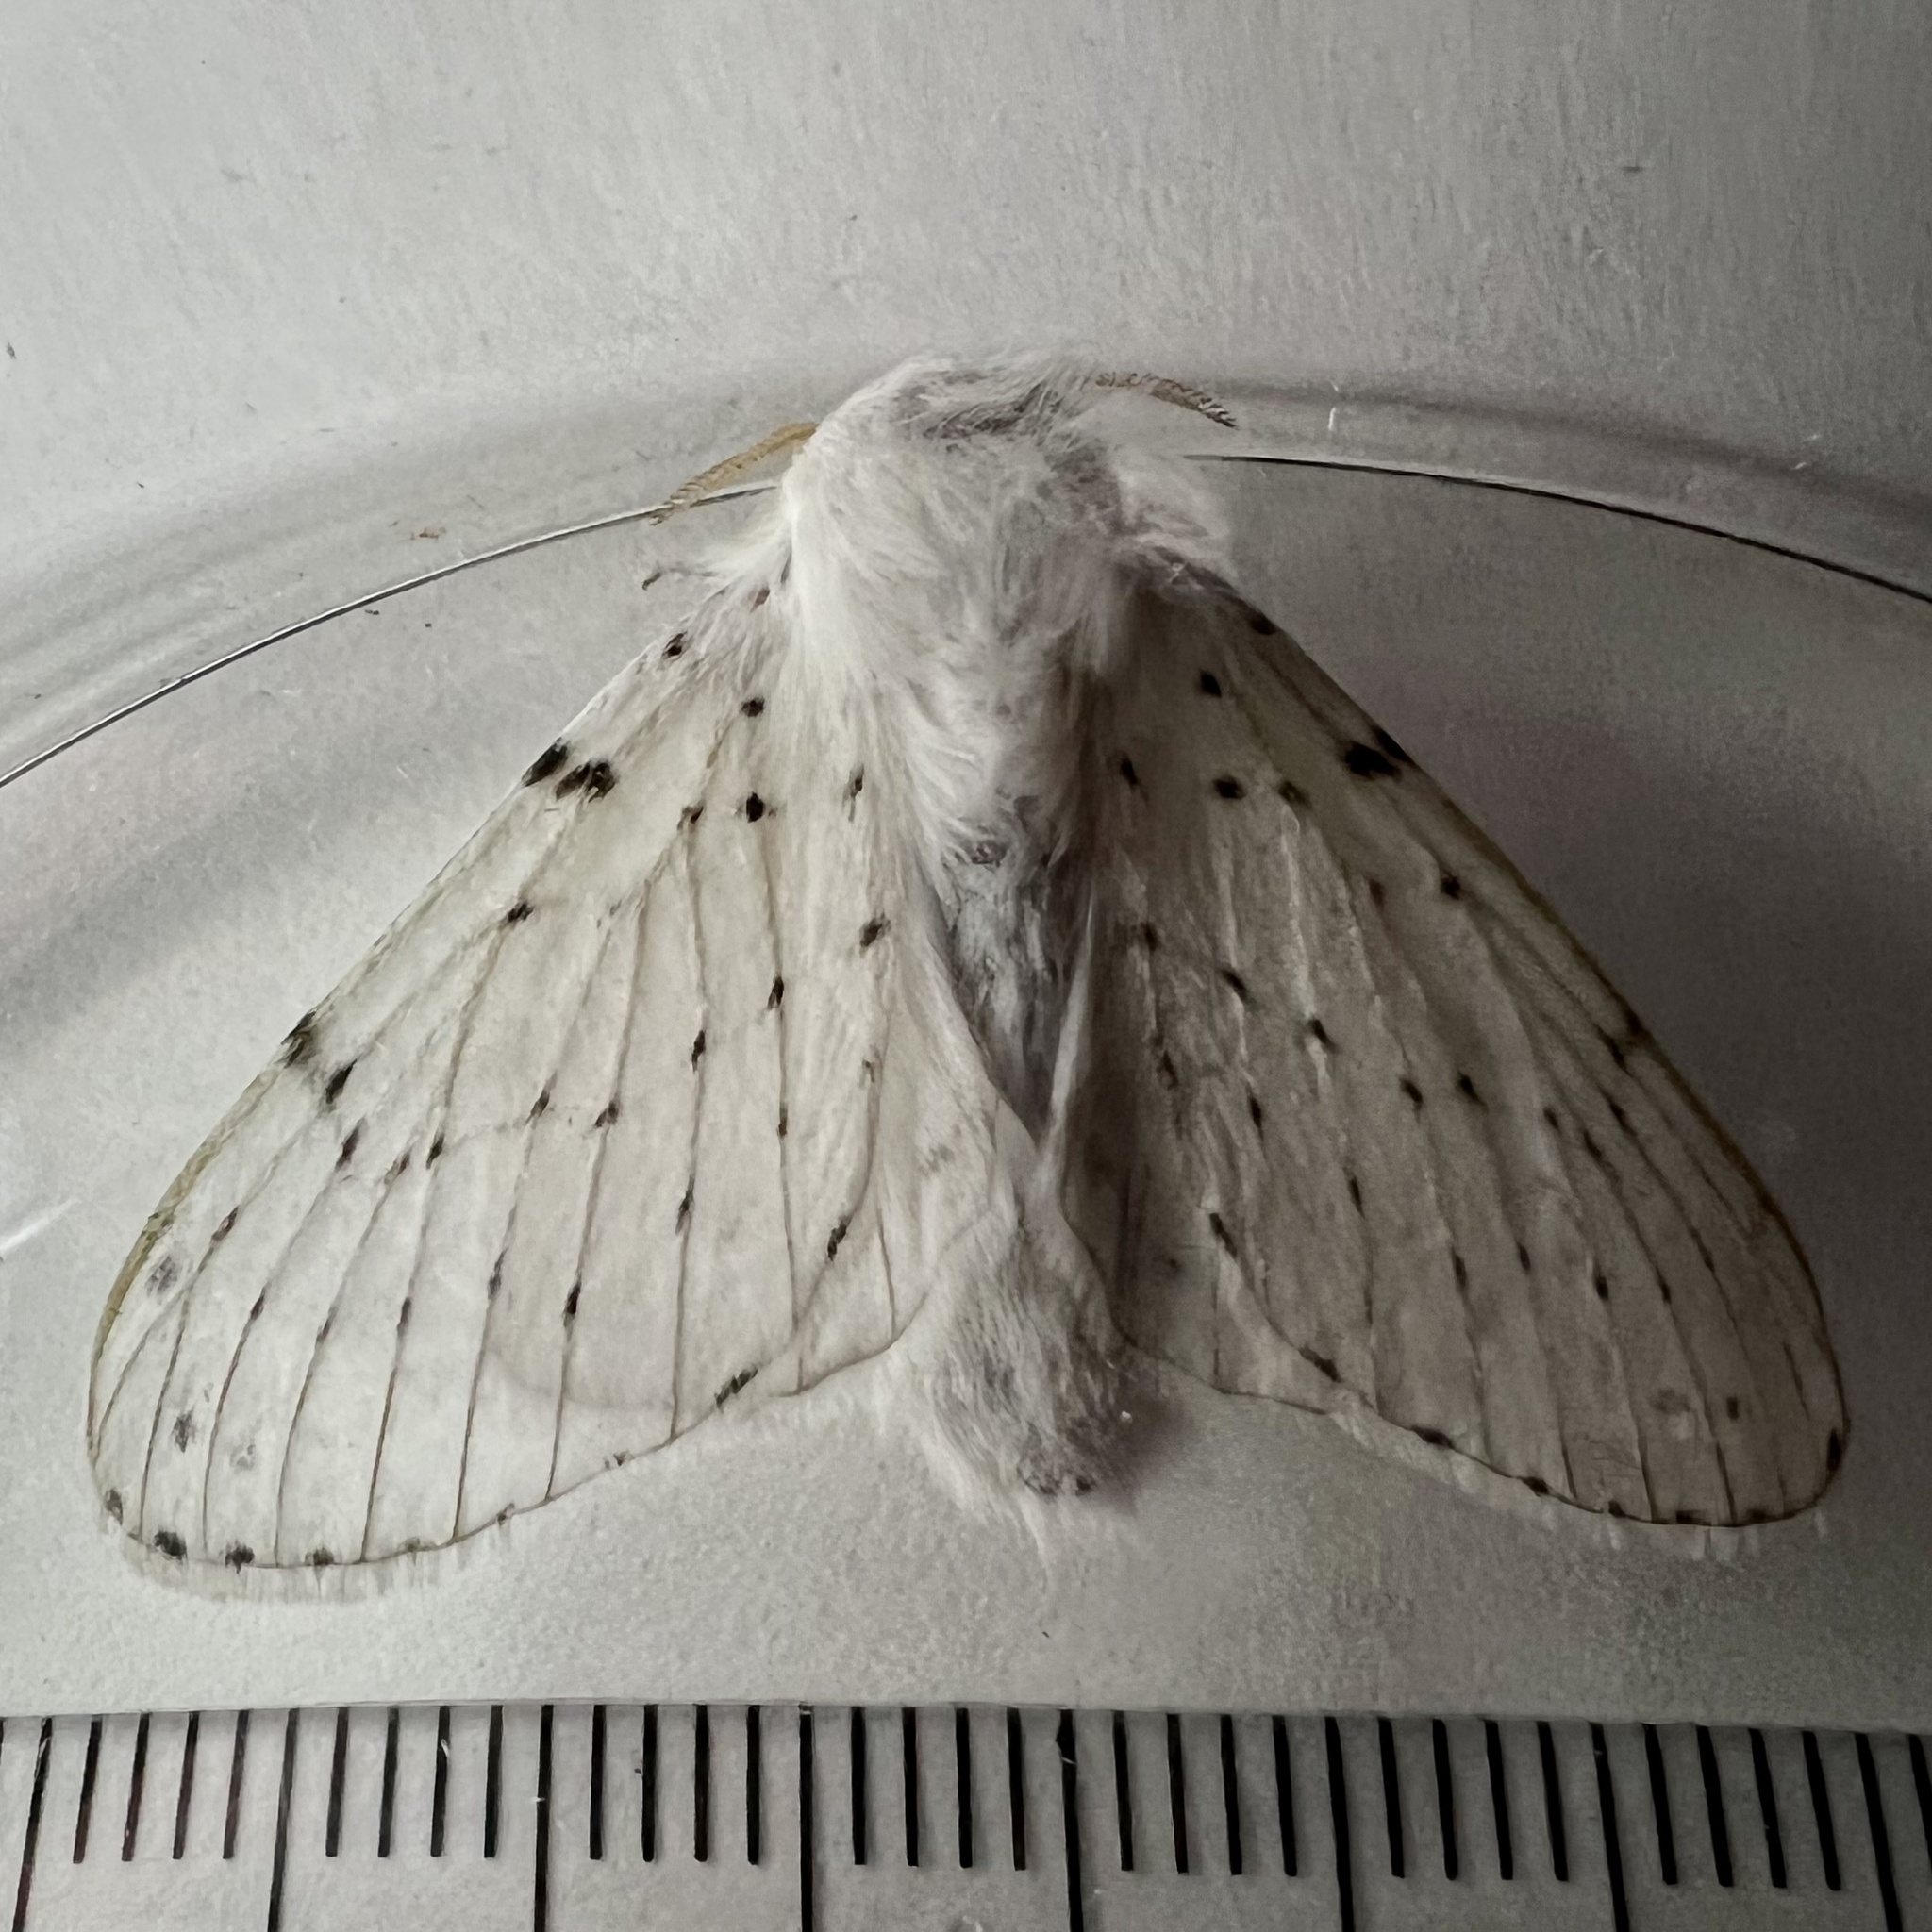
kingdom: Animalia
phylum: Arthropoda
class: Insecta
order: Lepidoptera
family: Lasiocampidae
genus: Artace
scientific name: Artace cribrarius
